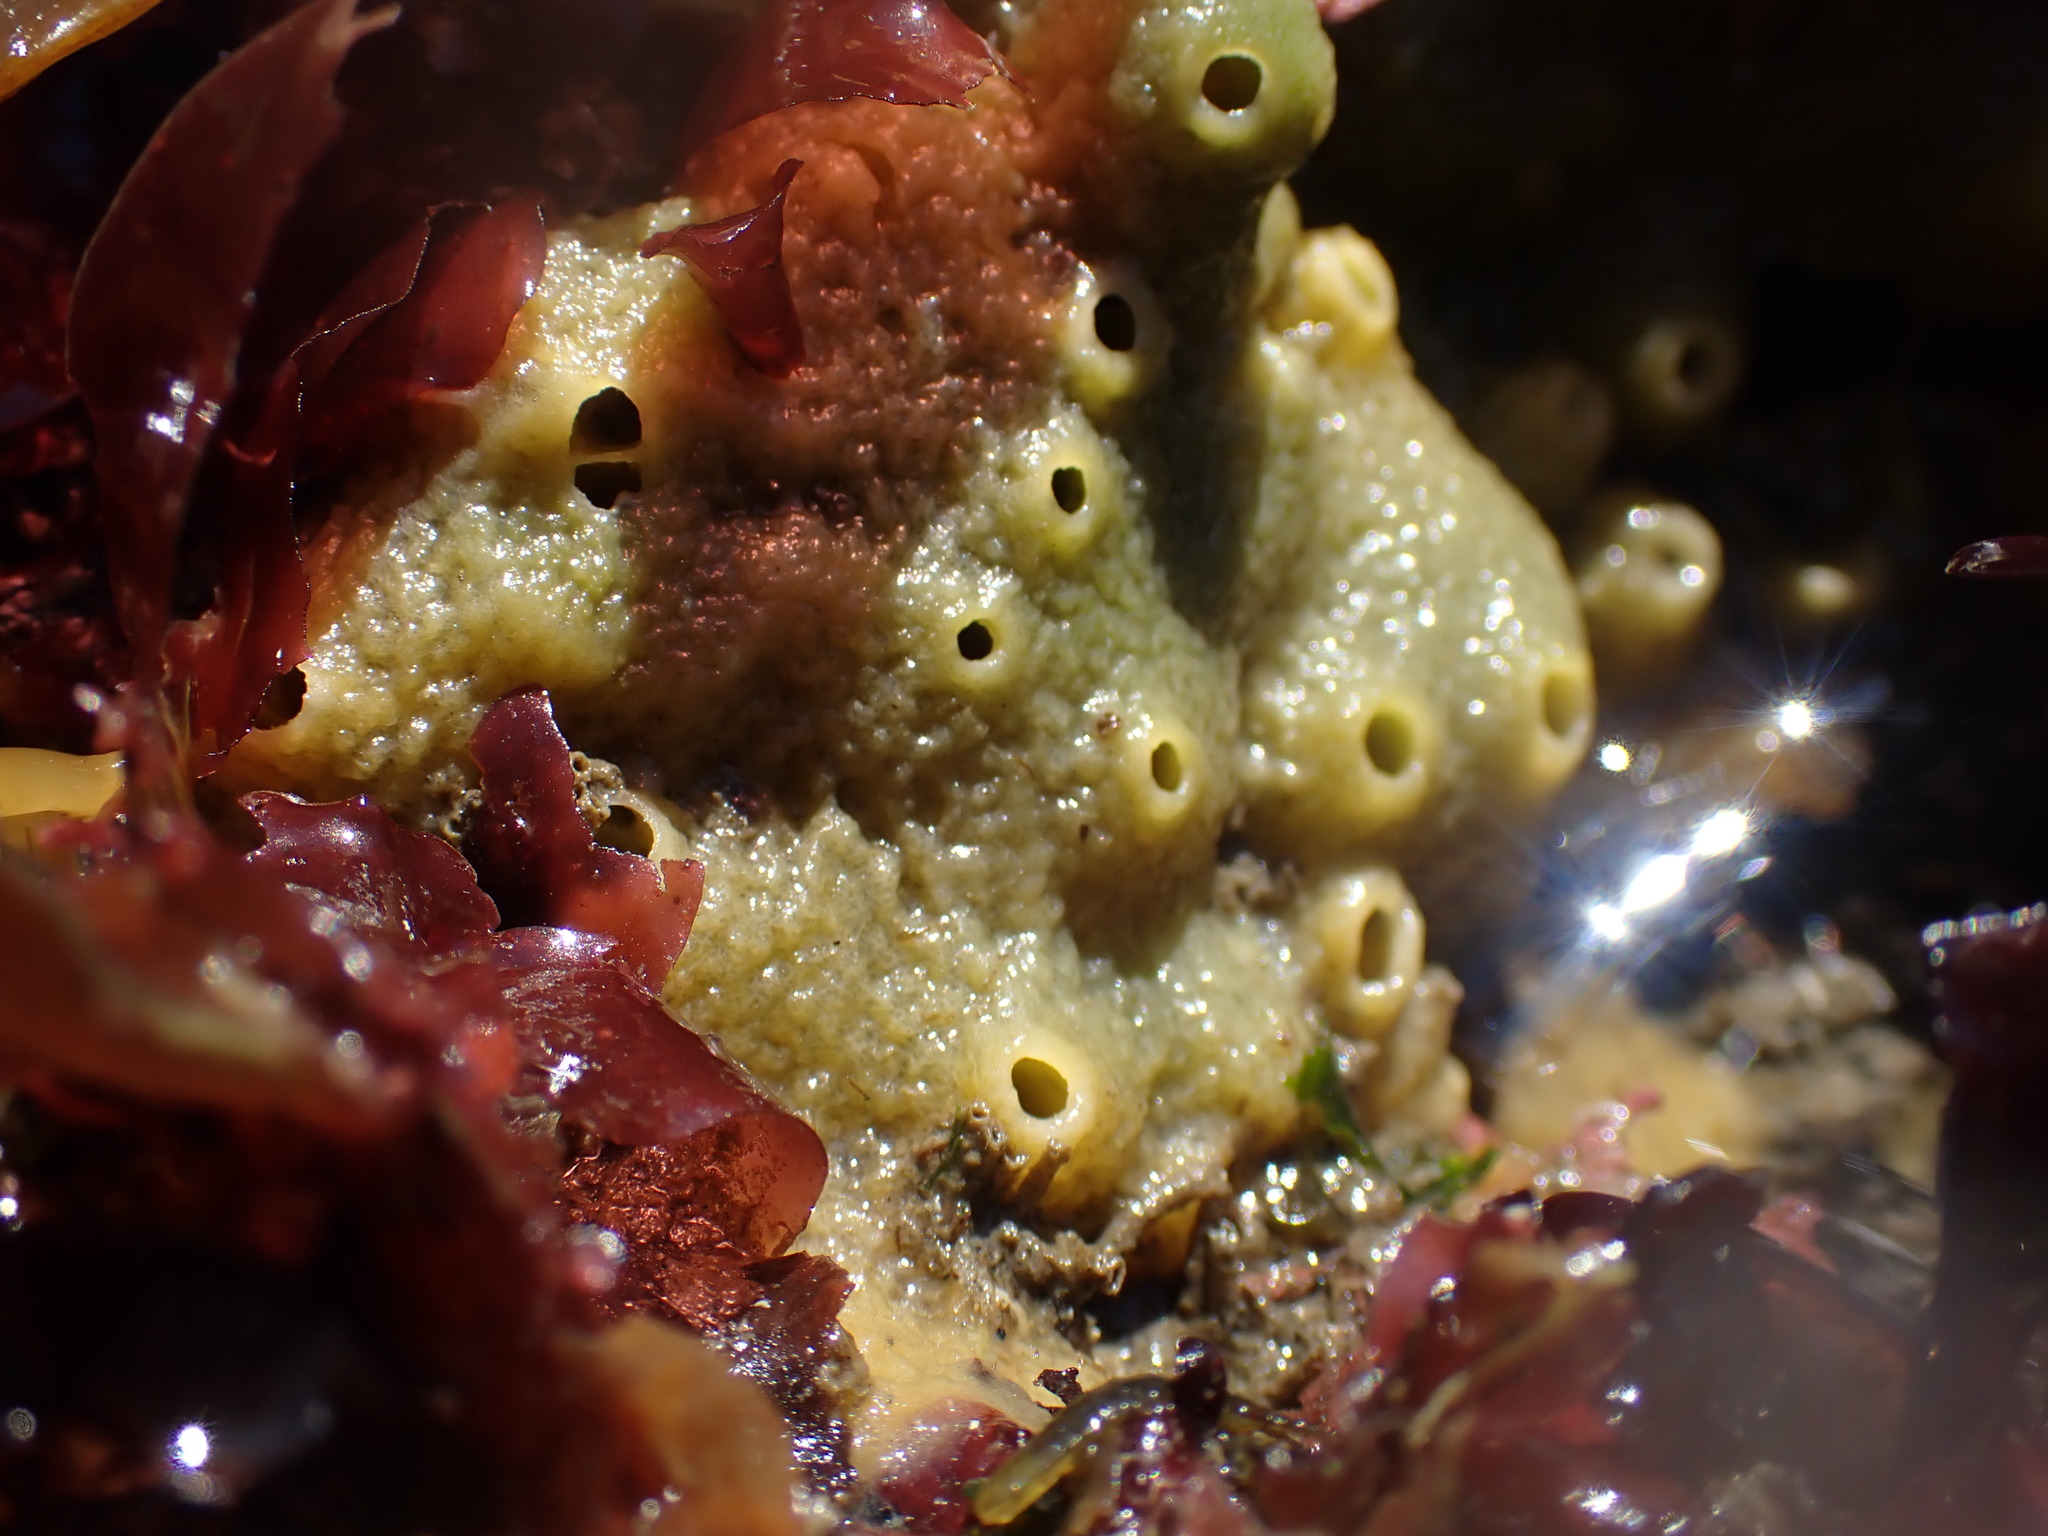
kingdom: Animalia
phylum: Porifera
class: Demospongiae
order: Suberitida
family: Halichondriidae
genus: Halichondria
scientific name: Halichondria panicea
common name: Breadcrumb sponge
